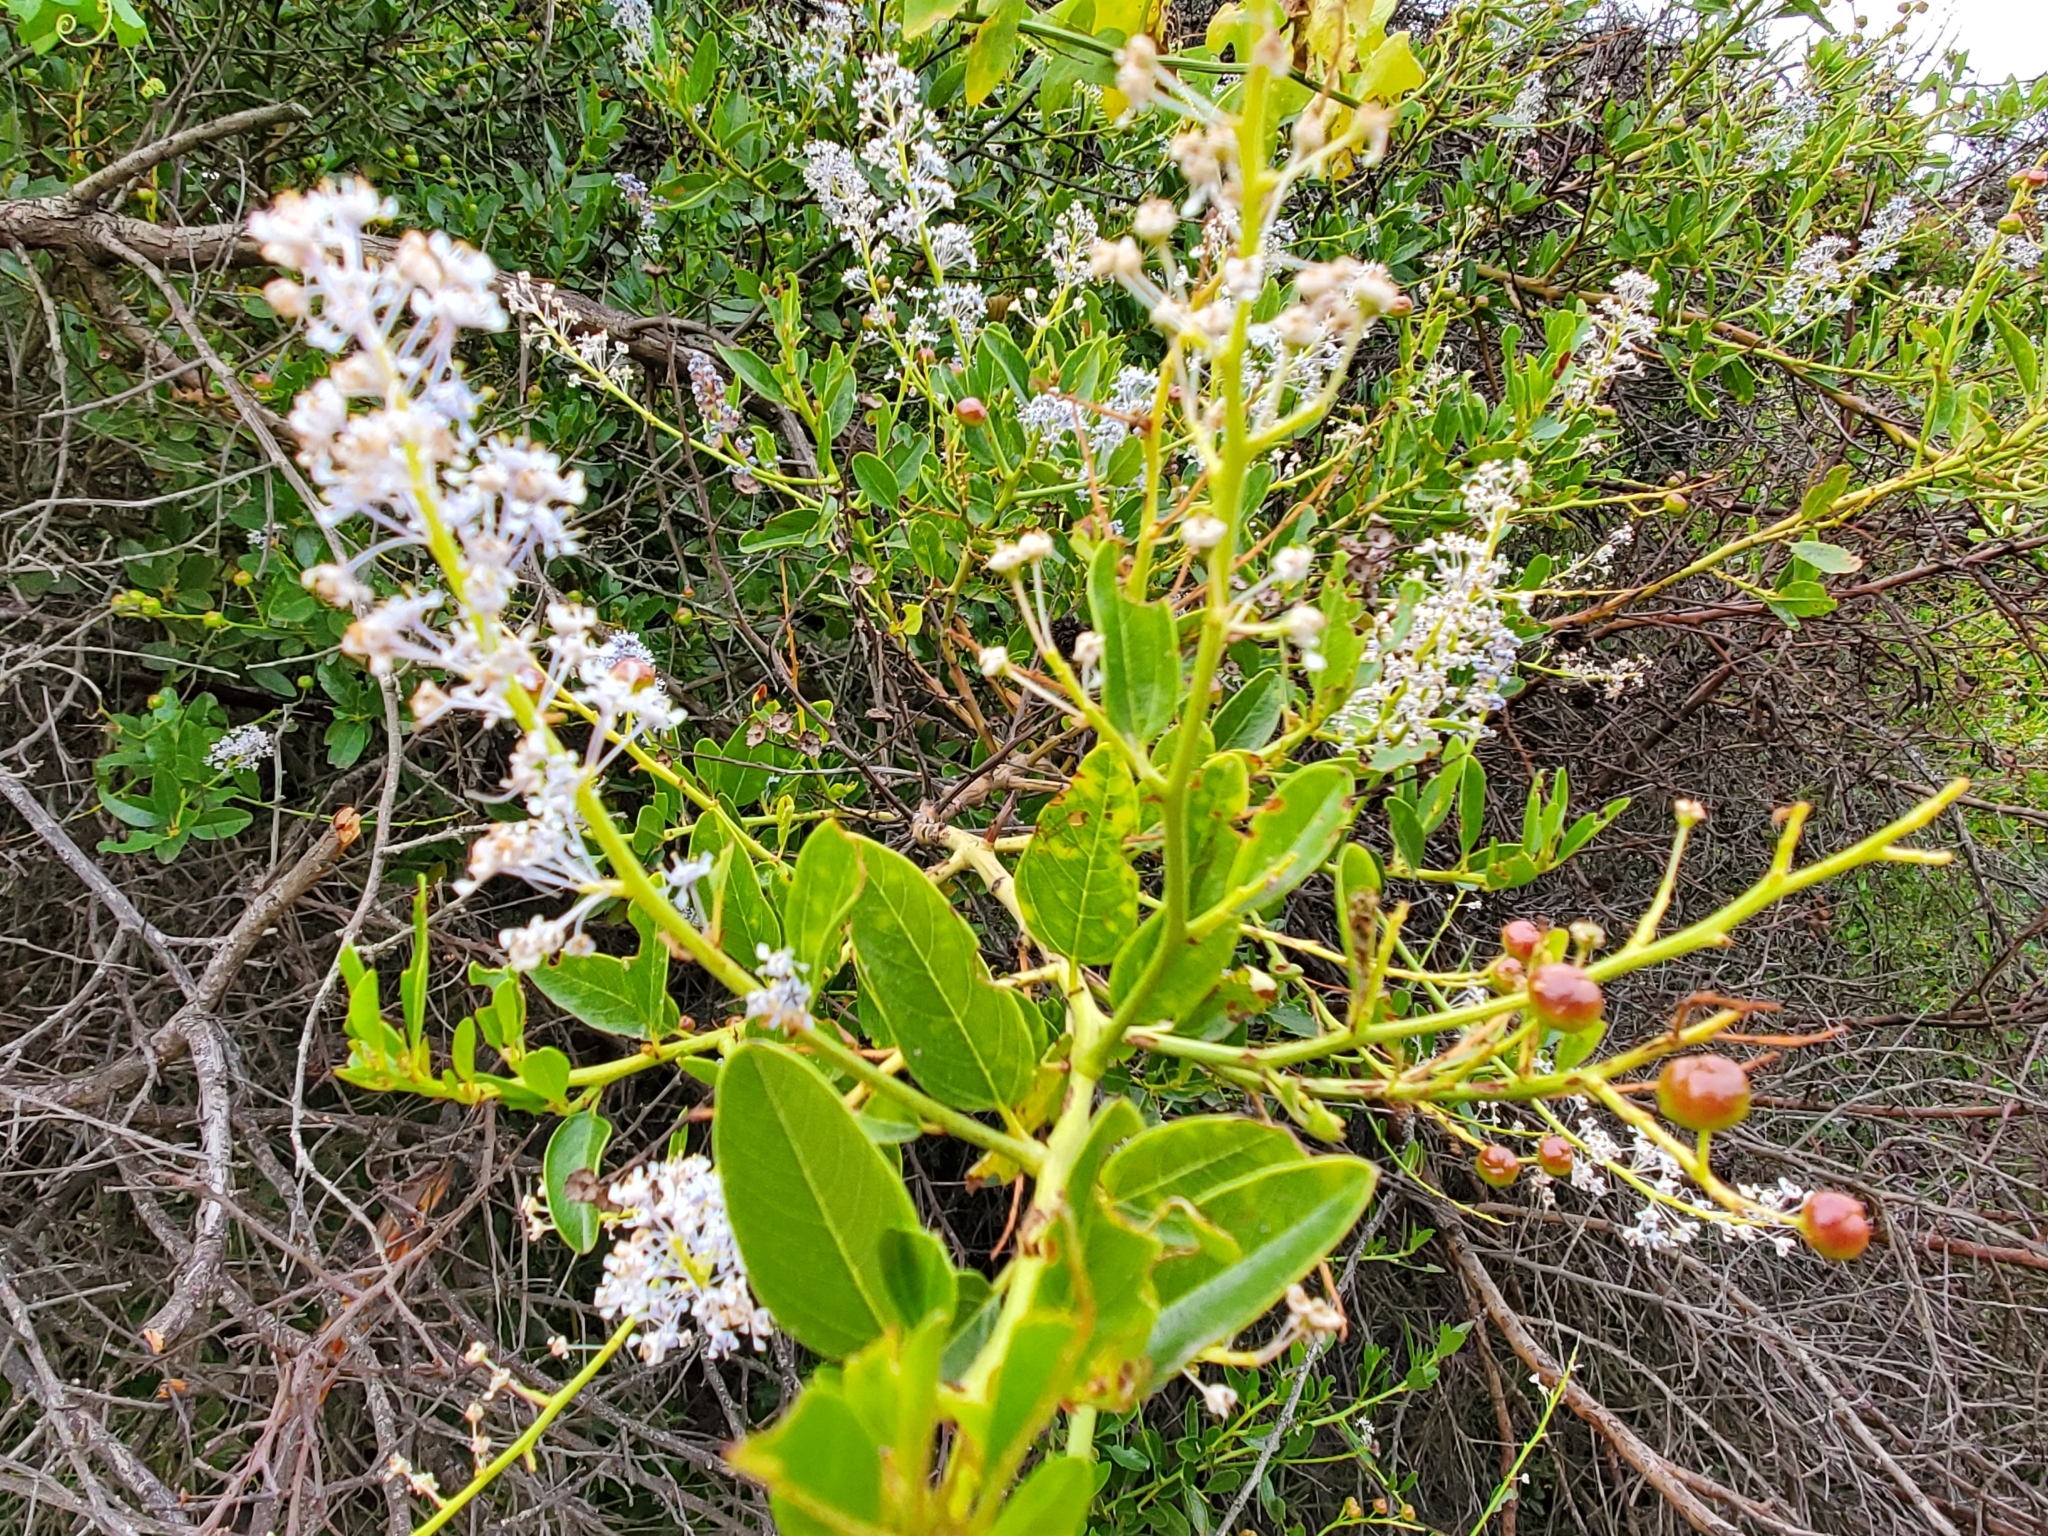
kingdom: Plantae
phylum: Tracheophyta
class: Magnoliopsida
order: Rosales
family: Rhamnaceae
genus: Ceanothus
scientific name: Ceanothus spinosus
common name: Greenbark whitethorn
